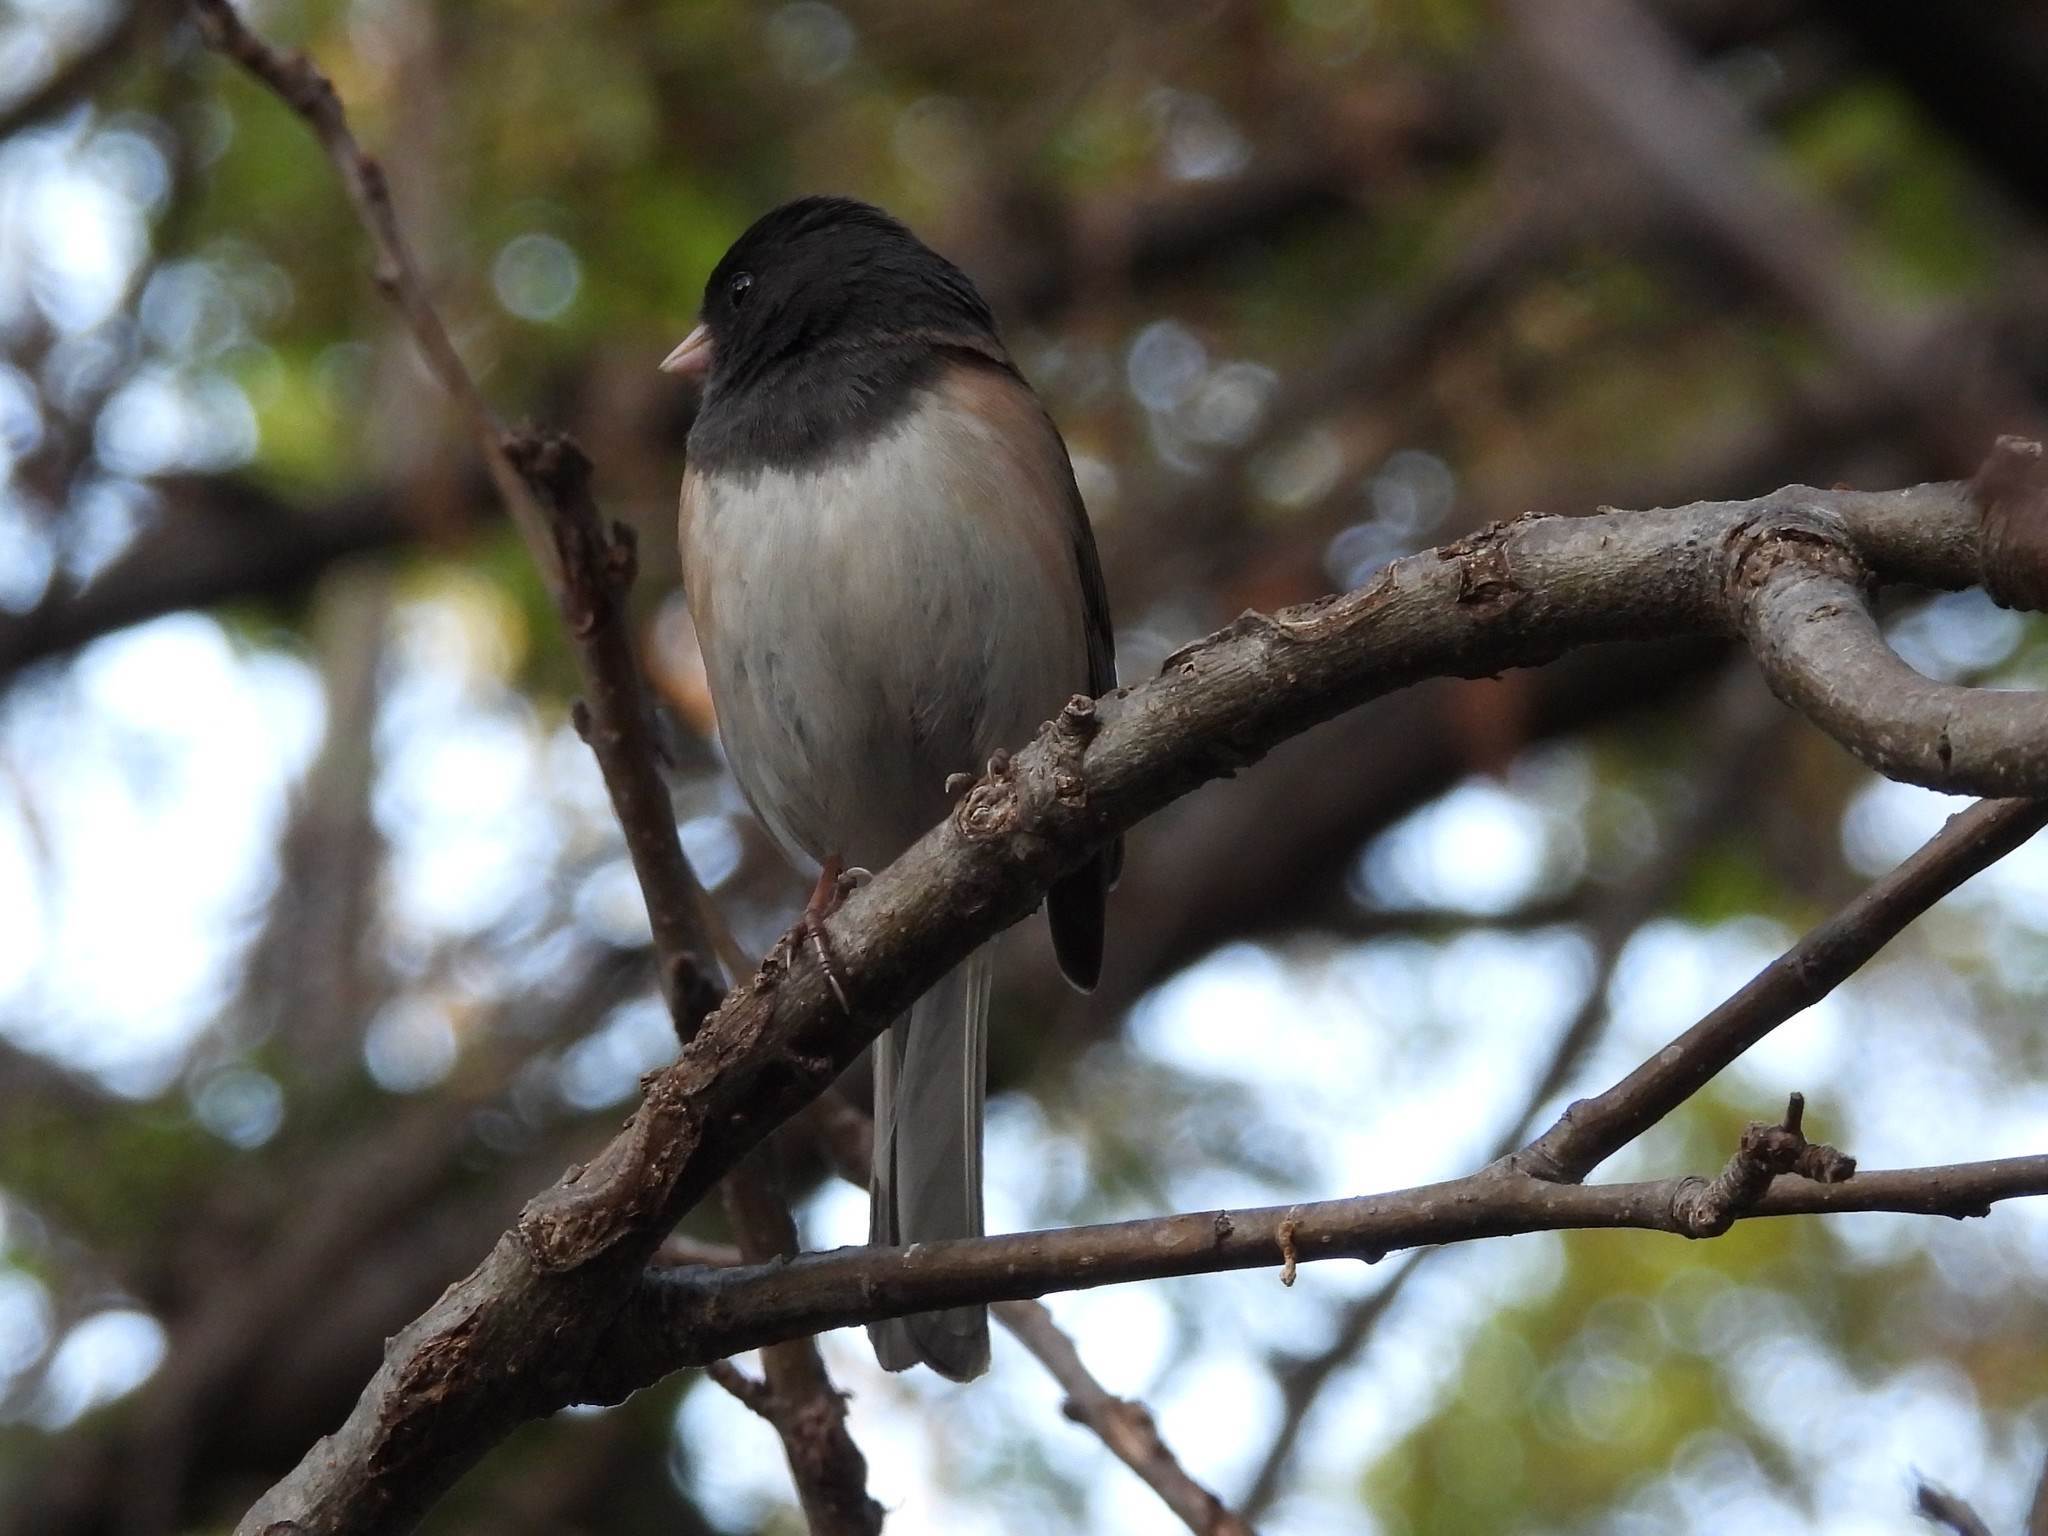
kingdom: Animalia
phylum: Chordata
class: Aves
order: Passeriformes
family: Passerellidae
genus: Junco
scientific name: Junco hyemalis
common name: Dark-eyed junco
